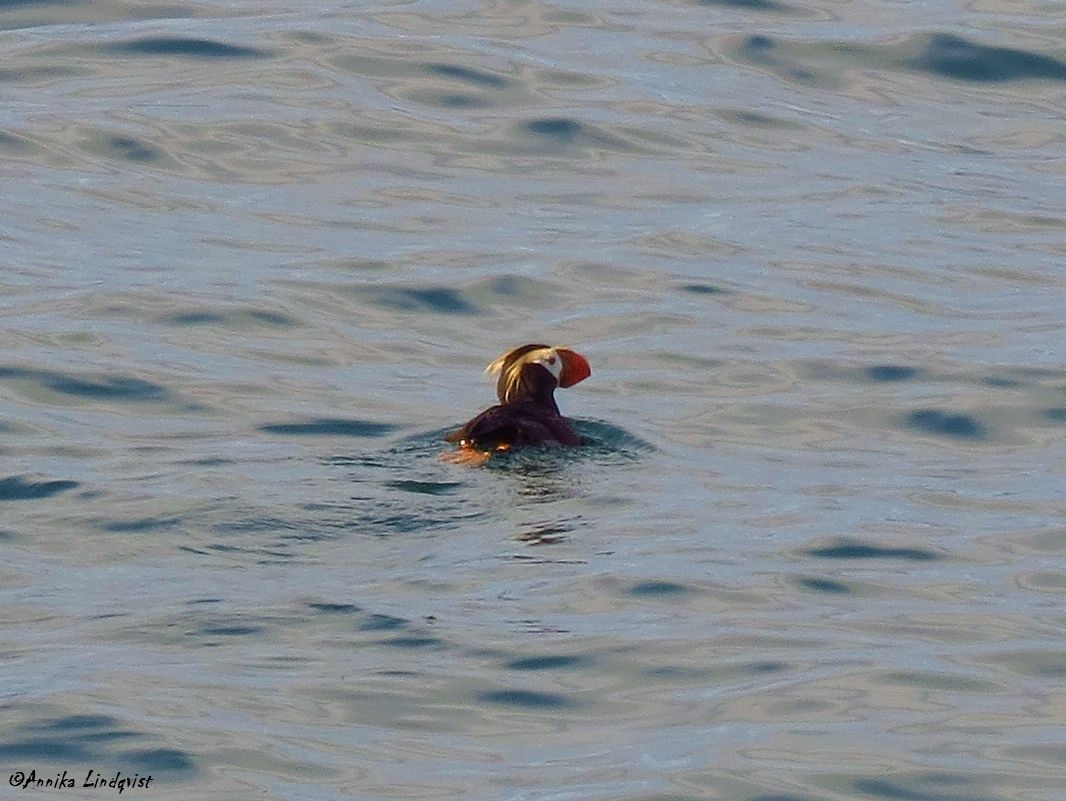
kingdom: Animalia
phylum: Chordata
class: Aves
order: Charadriiformes
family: Alcidae
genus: Fratercula
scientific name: Fratercula cirrhata
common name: Tufted puffin
